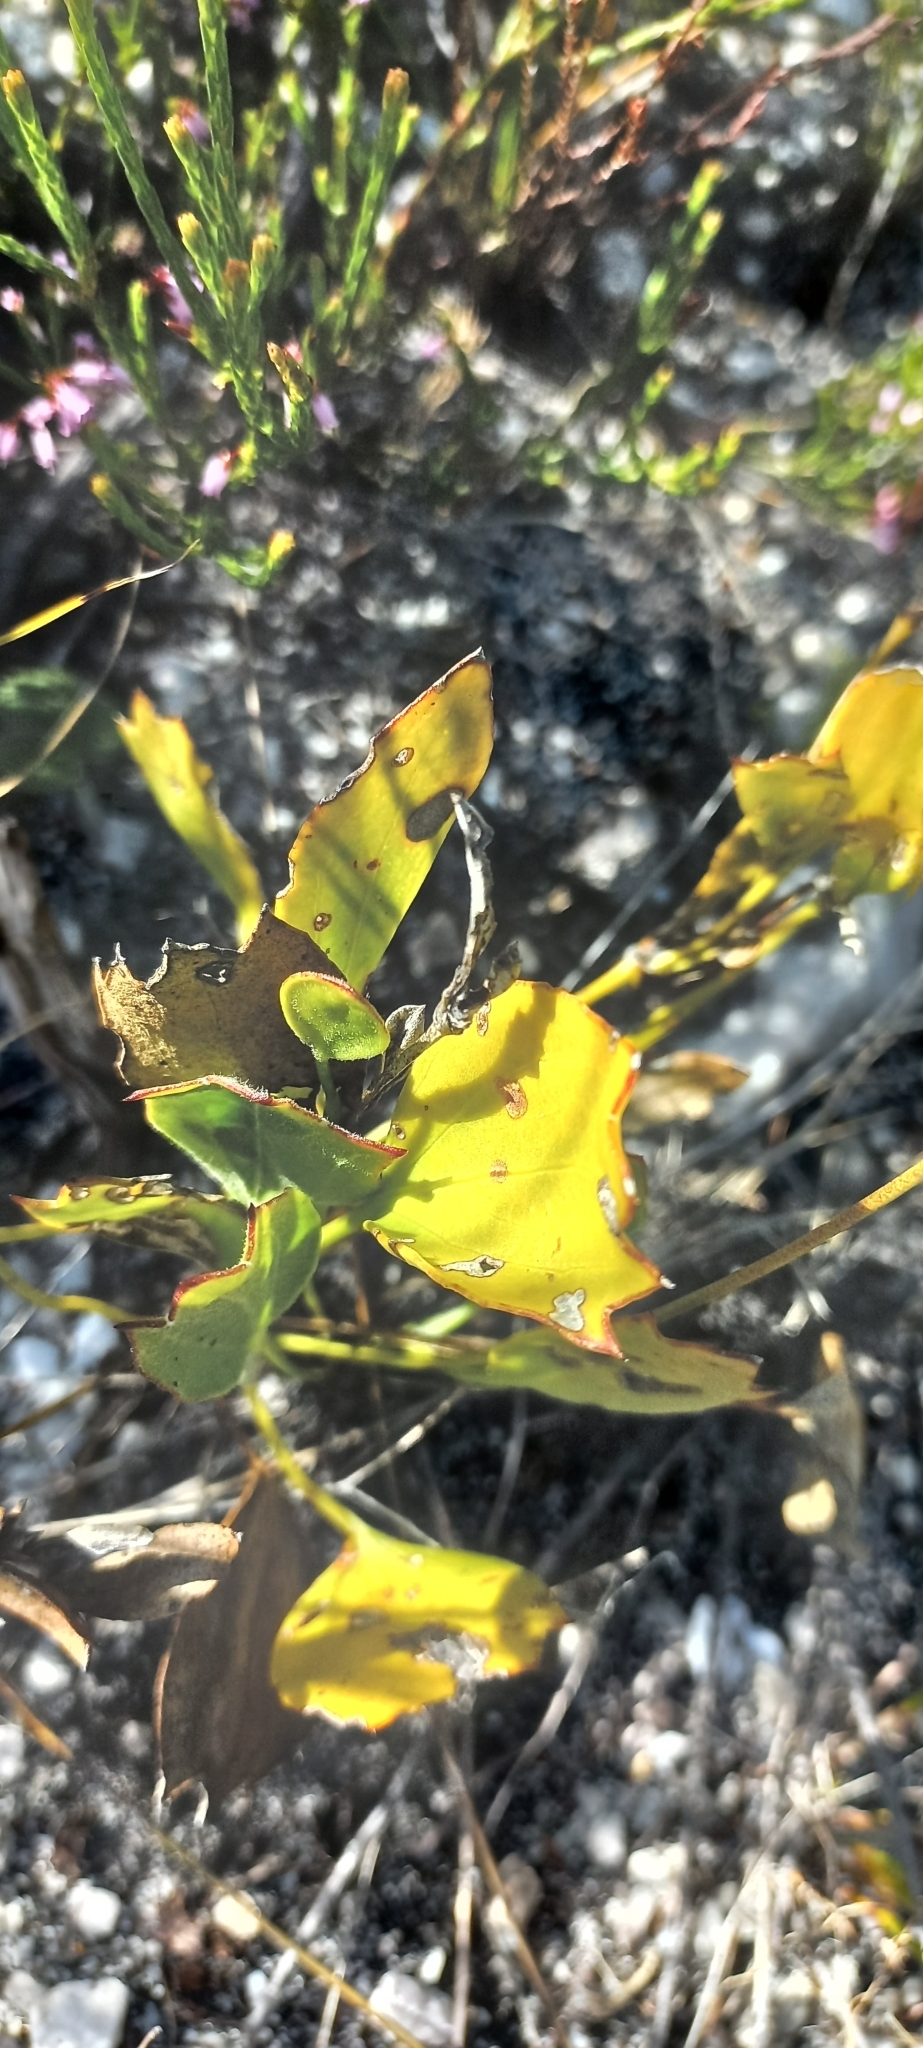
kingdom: Plantae
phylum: Tracheophyta
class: Magnoliopsida
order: Apiales
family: Apiaceae
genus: Centella
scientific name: Centella difformis
